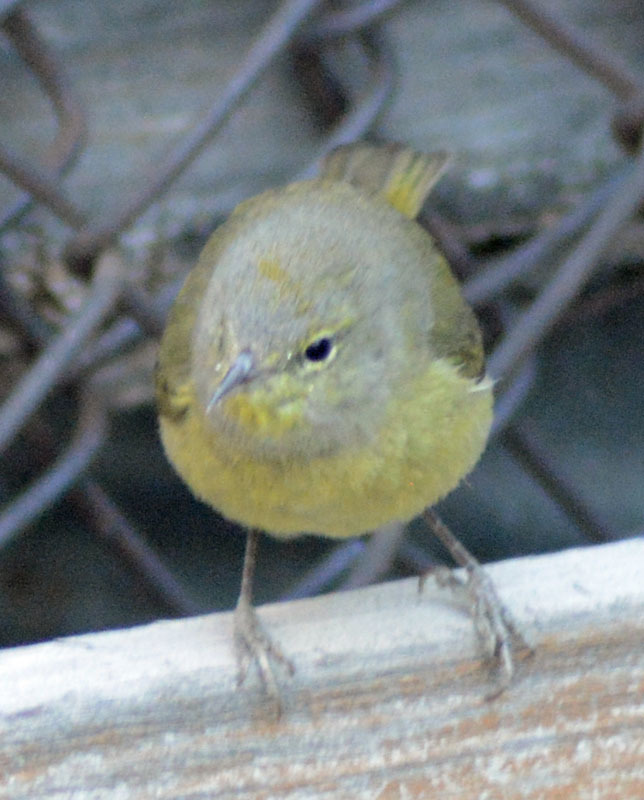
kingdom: Animalia
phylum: Chordata
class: Aves
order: Passeriformes
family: Parulidae
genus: Leiothlypis
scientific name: Leiothlypis celata
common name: Orange-crowned warbler
